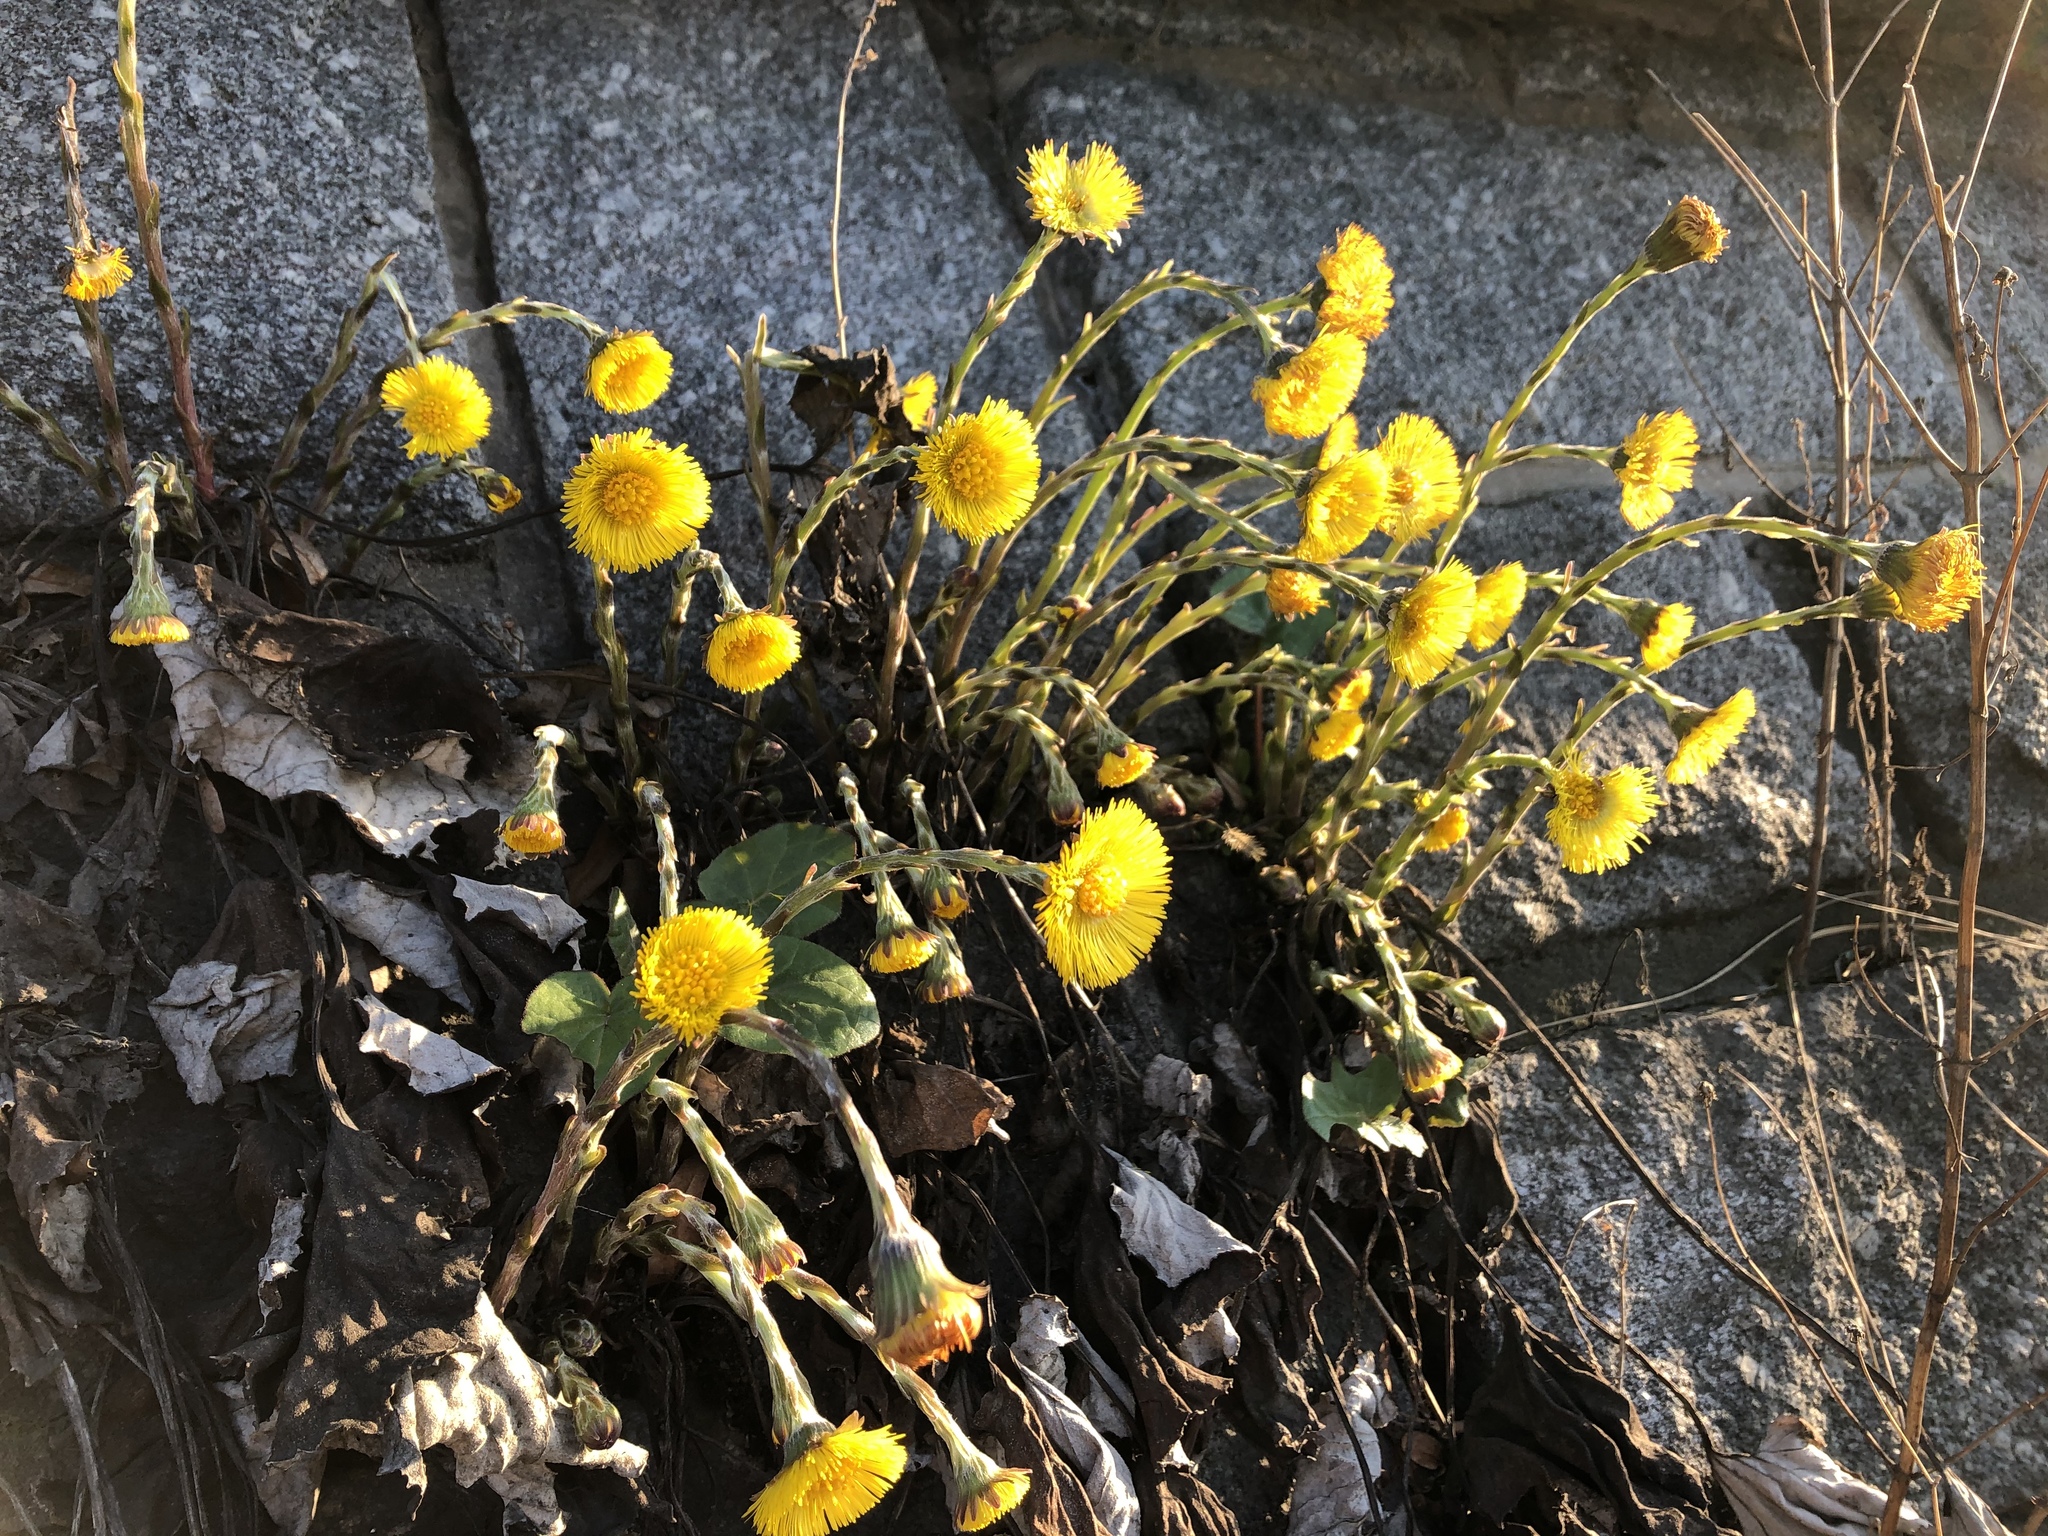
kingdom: Plantae
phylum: Tracheophyta
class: Magnoliopsida
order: Asterales
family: Asteraceae
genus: Tussilago
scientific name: Tussilago farfara
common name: Coltsfoot
